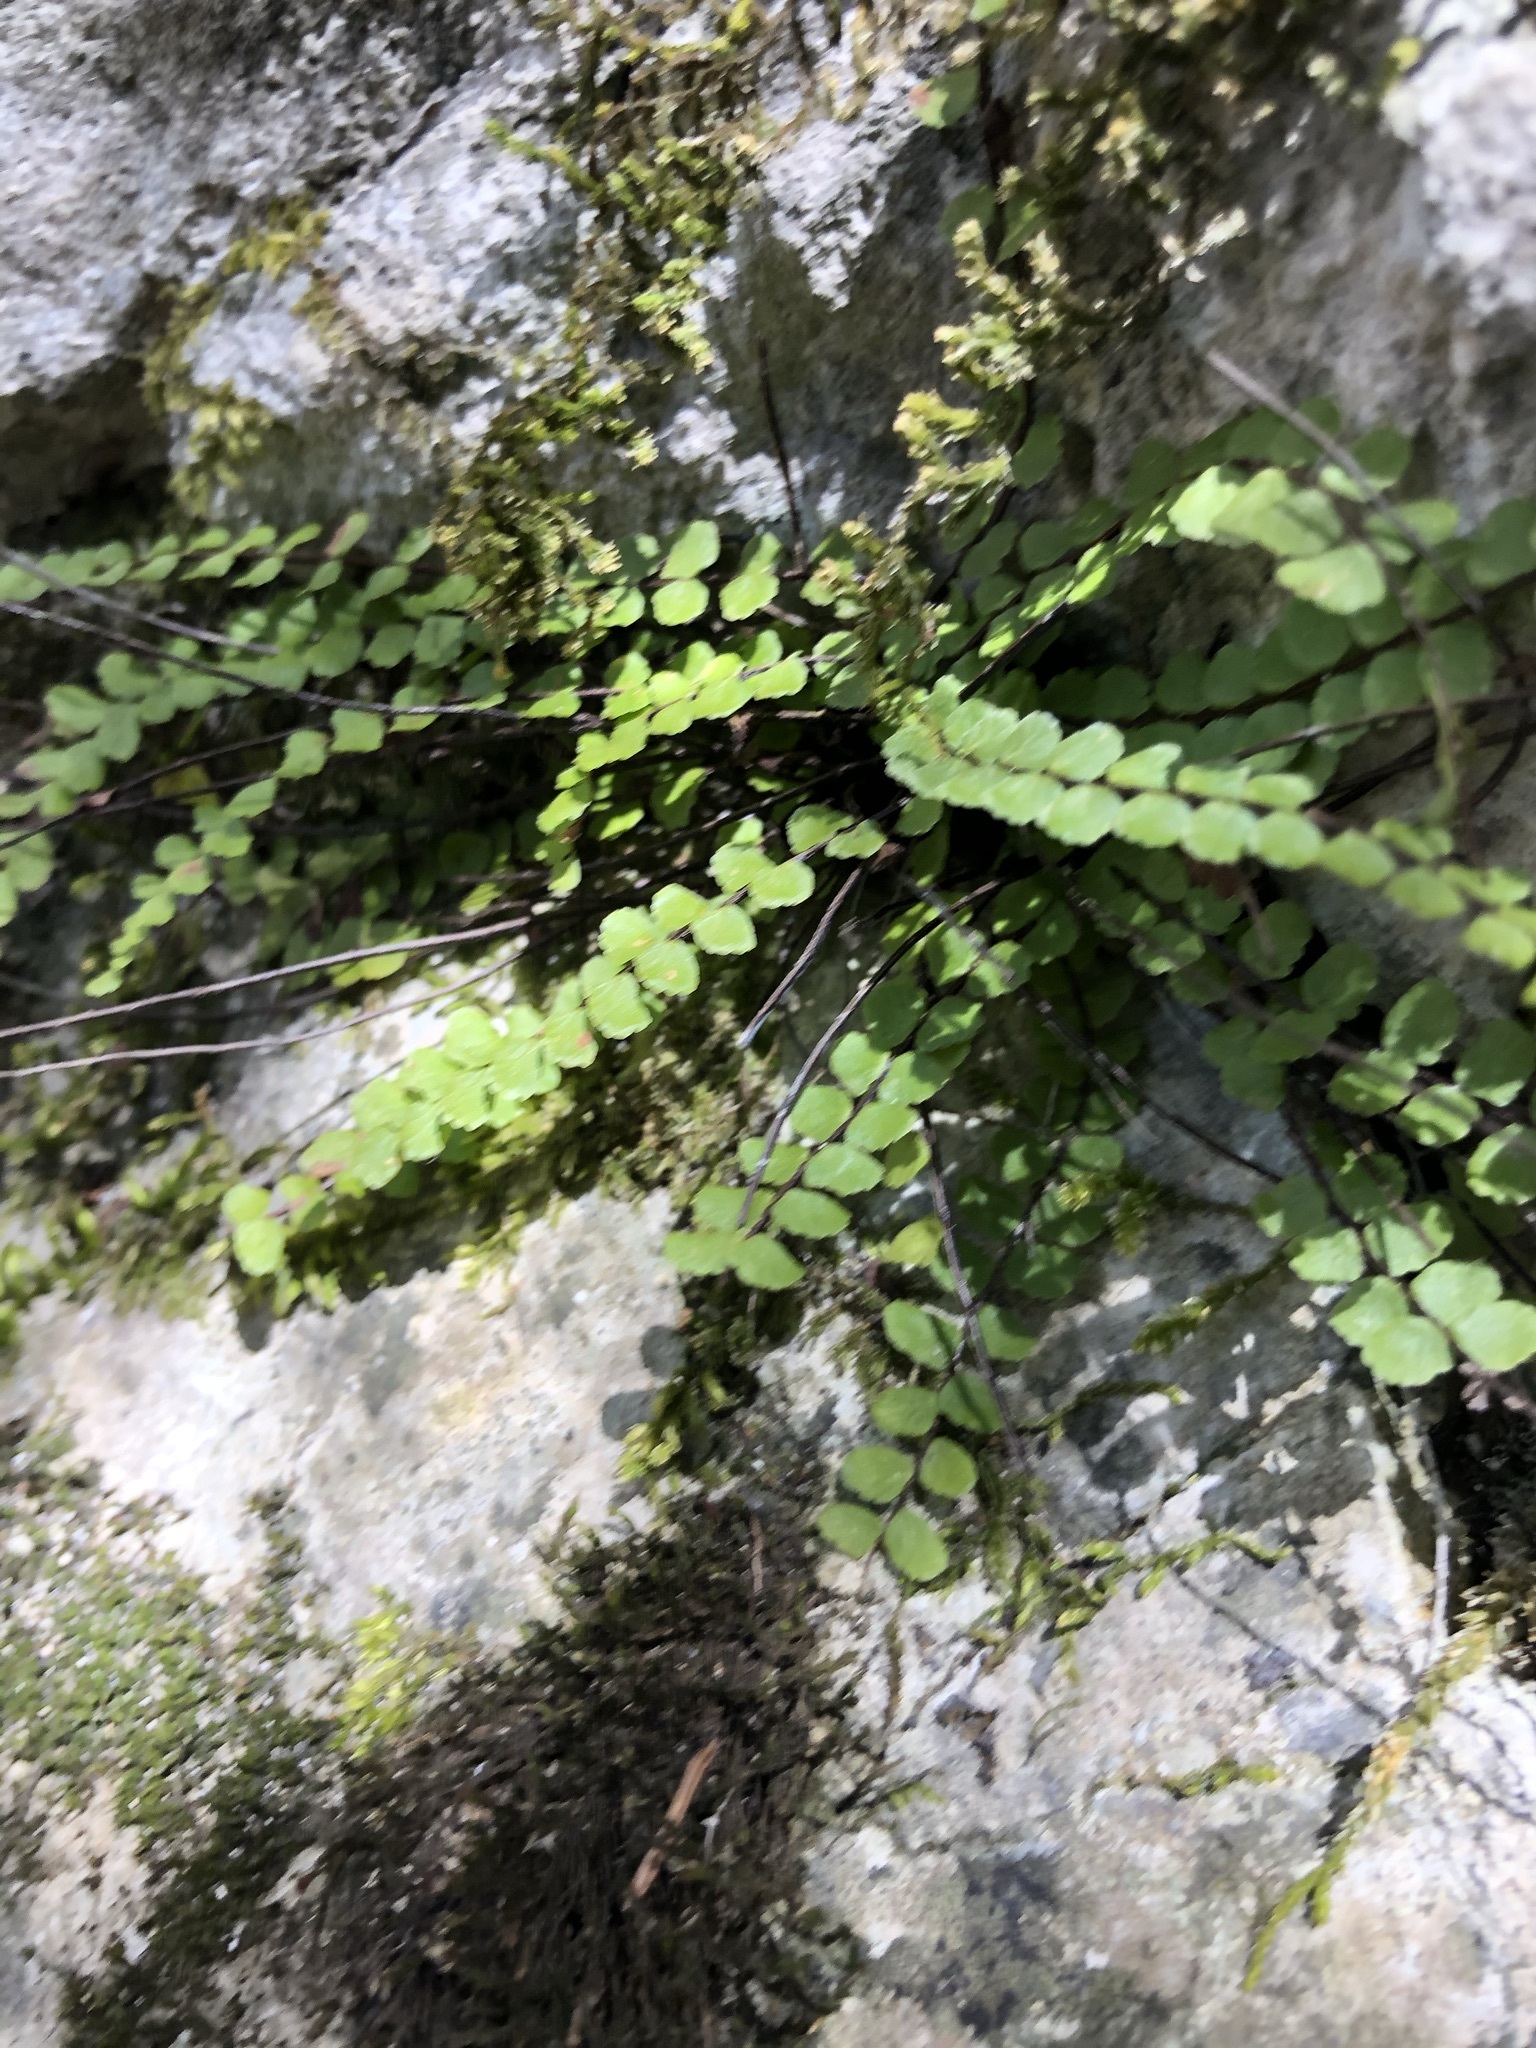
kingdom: Plantae
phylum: Tracheophyta
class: Polypodiopsida
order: Polypodiales
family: Aspleniaceae
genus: Asplenium
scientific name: Asplenium trichomanes
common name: Maidenhair spleenwort
